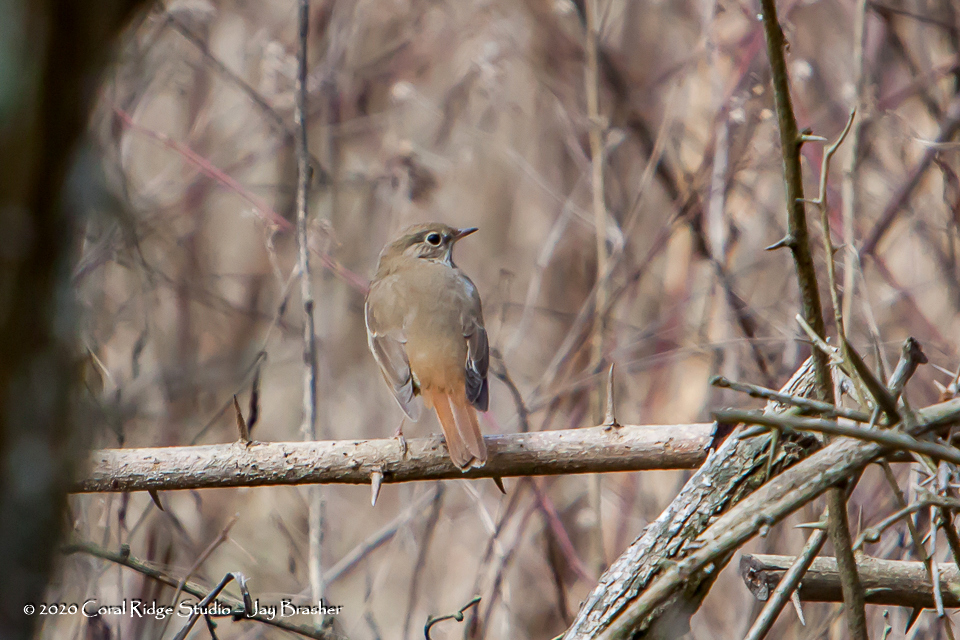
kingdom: Animalia
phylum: Chordata
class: Aves
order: Passeriformes
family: Turdidae
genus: Catharus
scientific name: Catharus guttatus
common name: Hermit thrush
